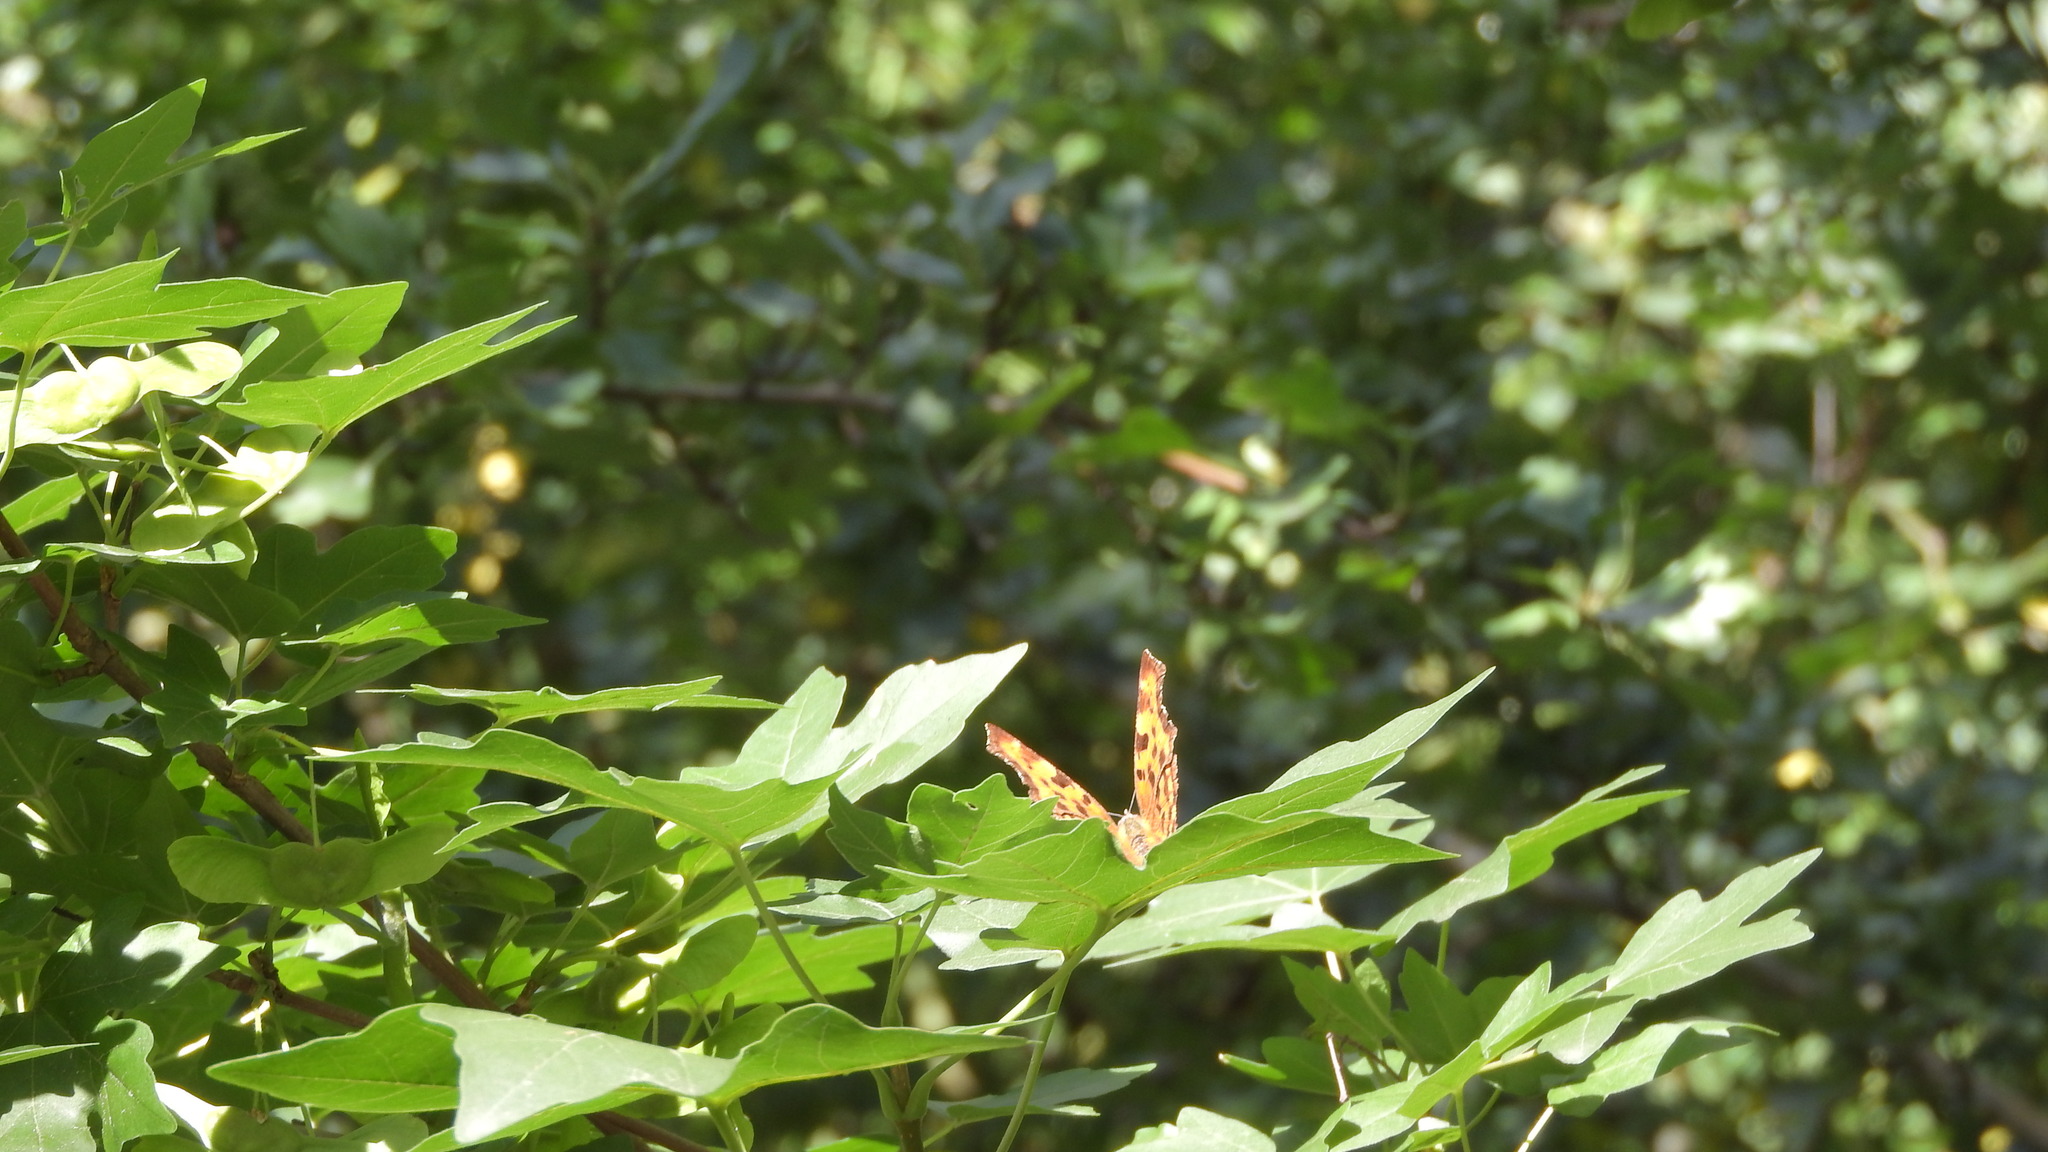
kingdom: Animalia
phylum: Arthropoda
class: Insecta
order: Lepidoptera
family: Nymphalidae
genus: Polygonia
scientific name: Polygonia c-album
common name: Comma
